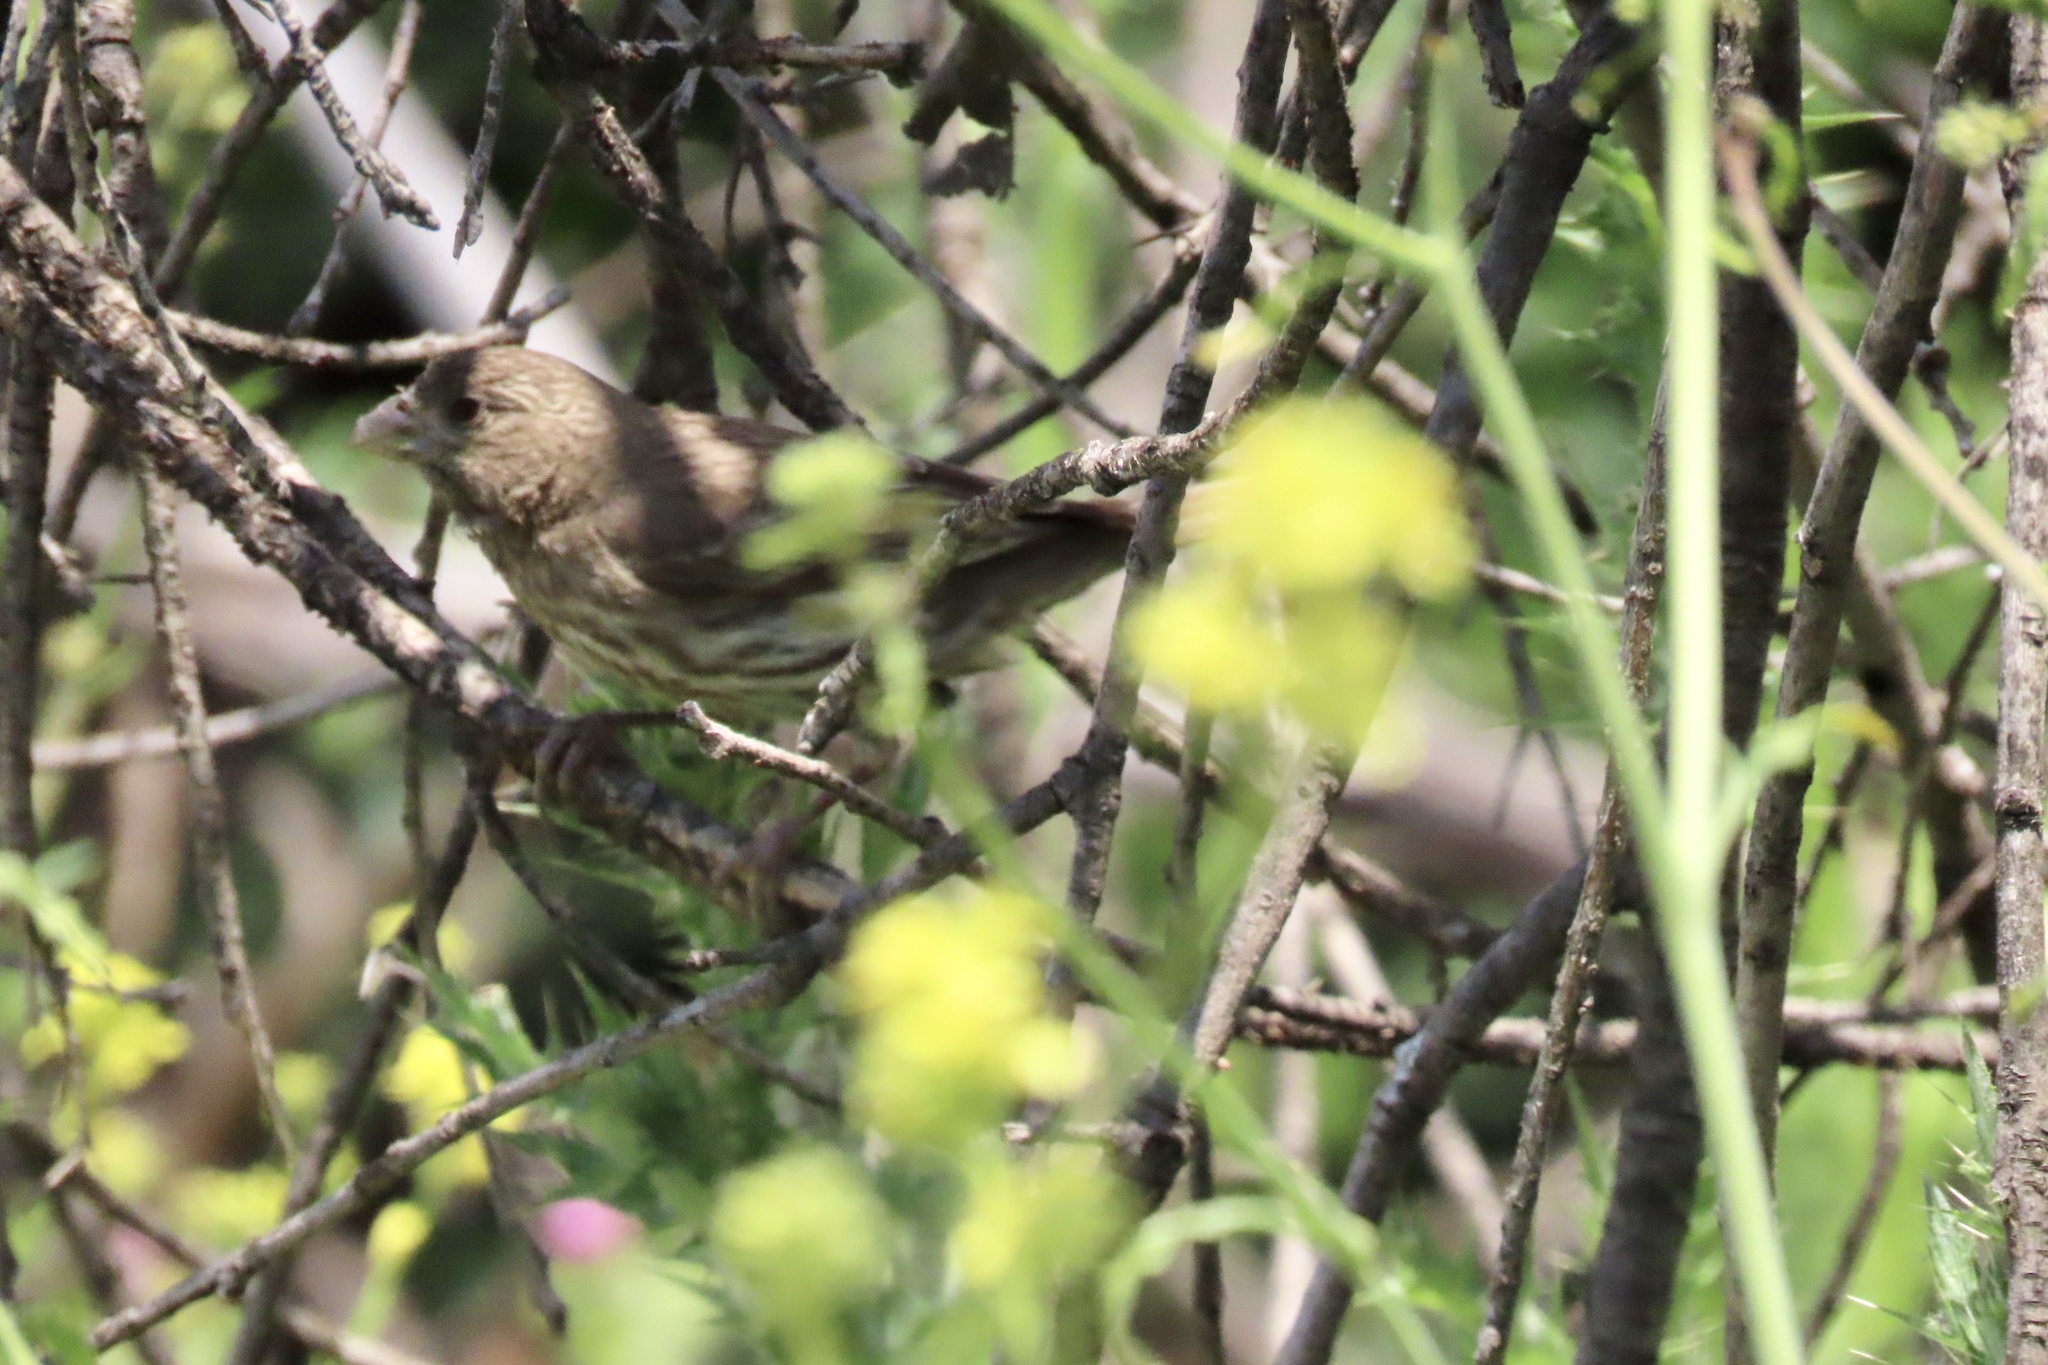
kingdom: Animalia
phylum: Chordata
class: Aves
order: Passeriformes
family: Fringillidae
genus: Haemorhous
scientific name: Haemorhous mexicanus
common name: House finch
